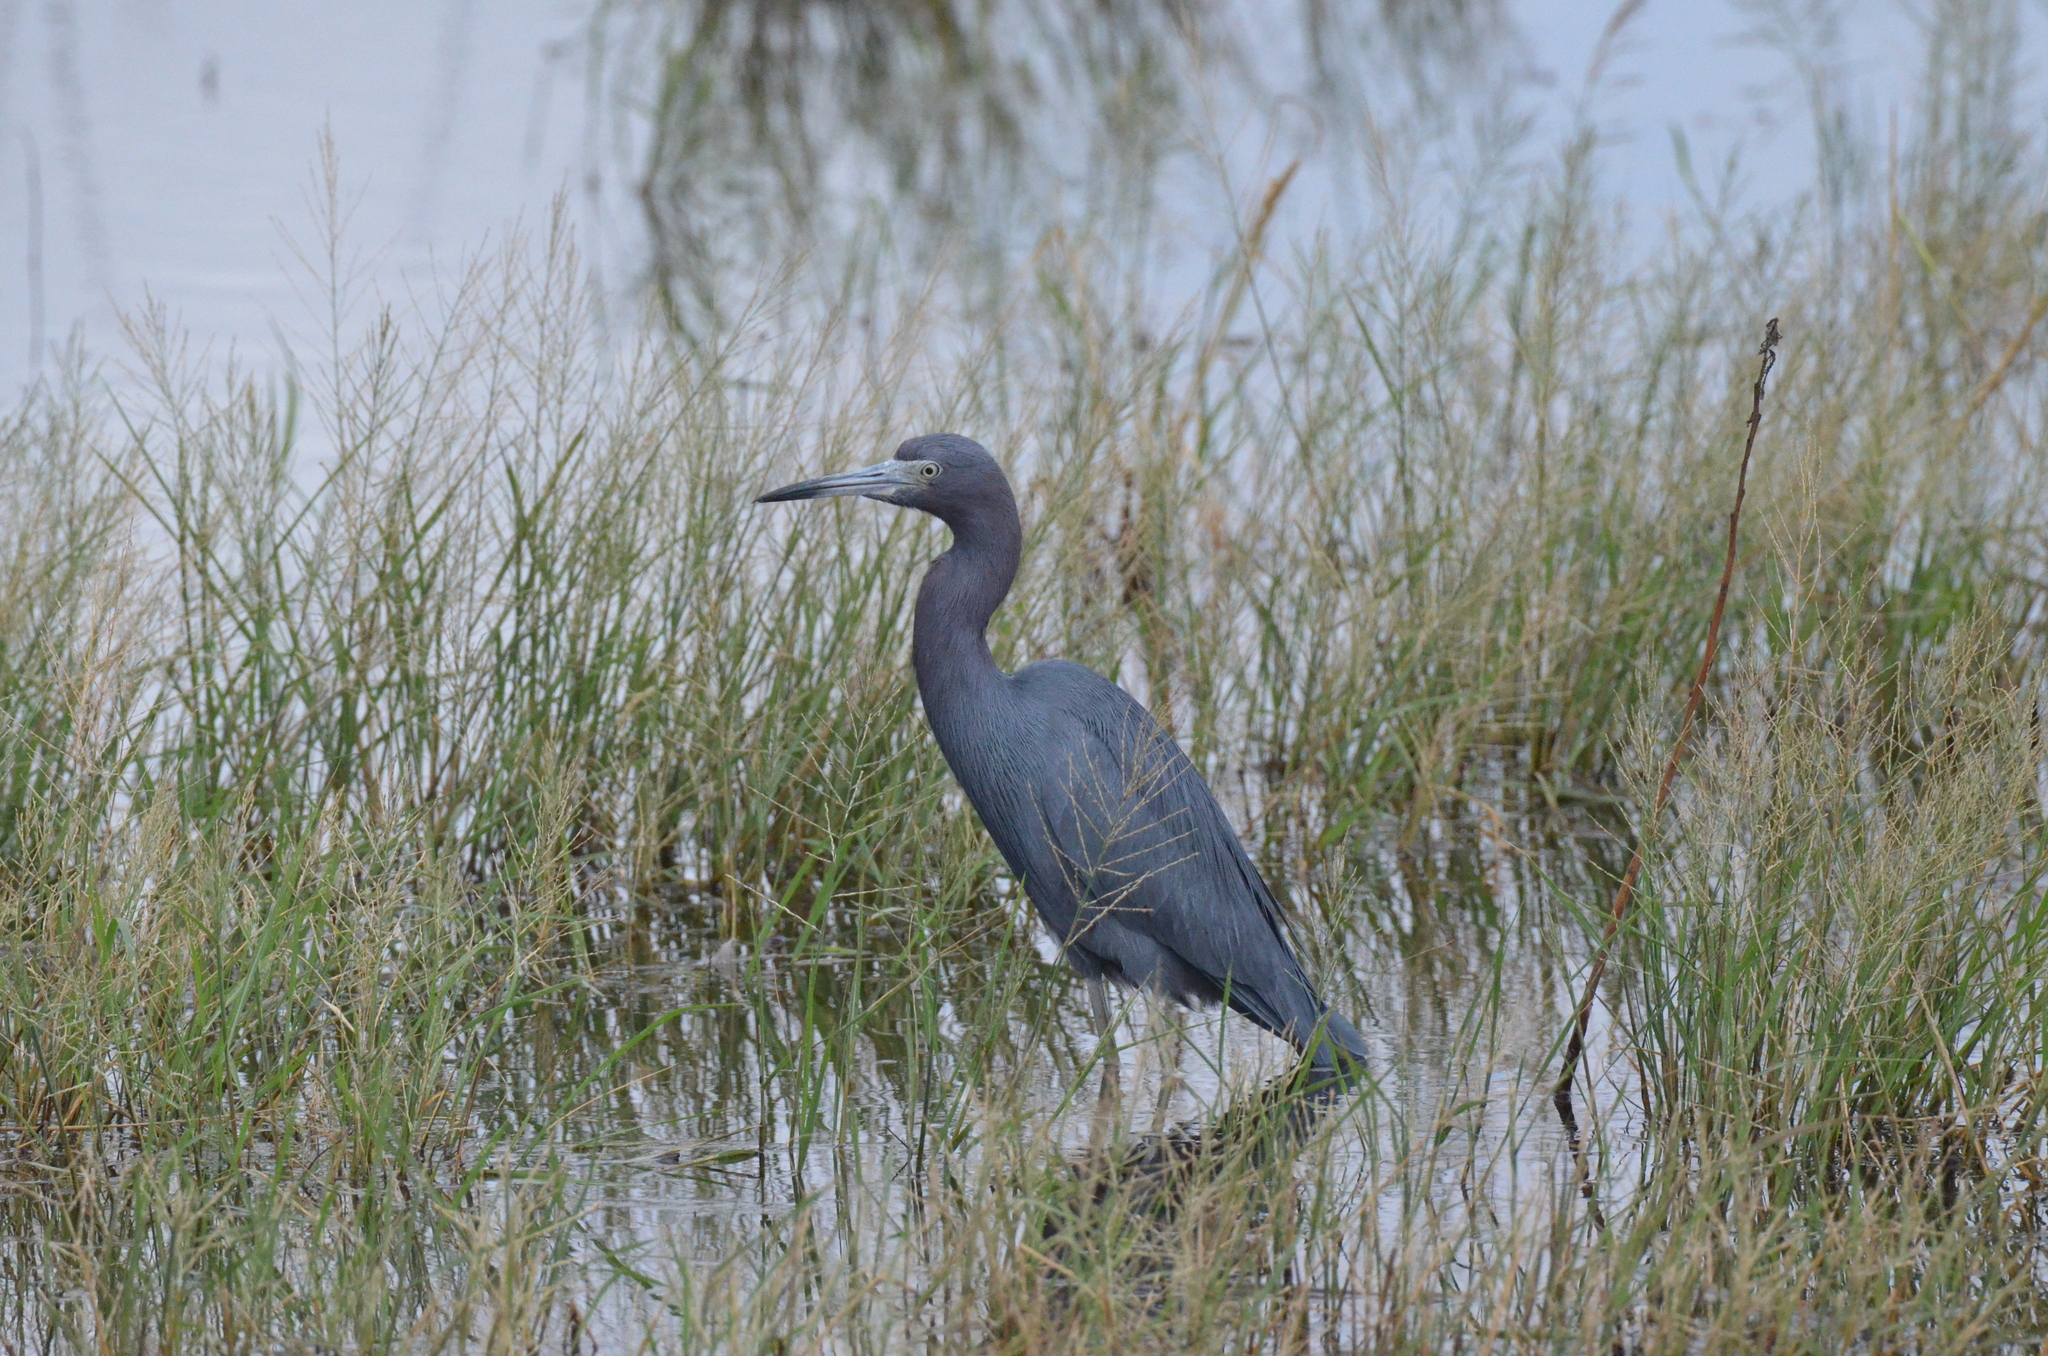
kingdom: Animalia
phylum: Chordata
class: Aves
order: Pelecaniformes
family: Ardeidae
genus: Egretta
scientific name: Egretta caerulea
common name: Little blue heron
